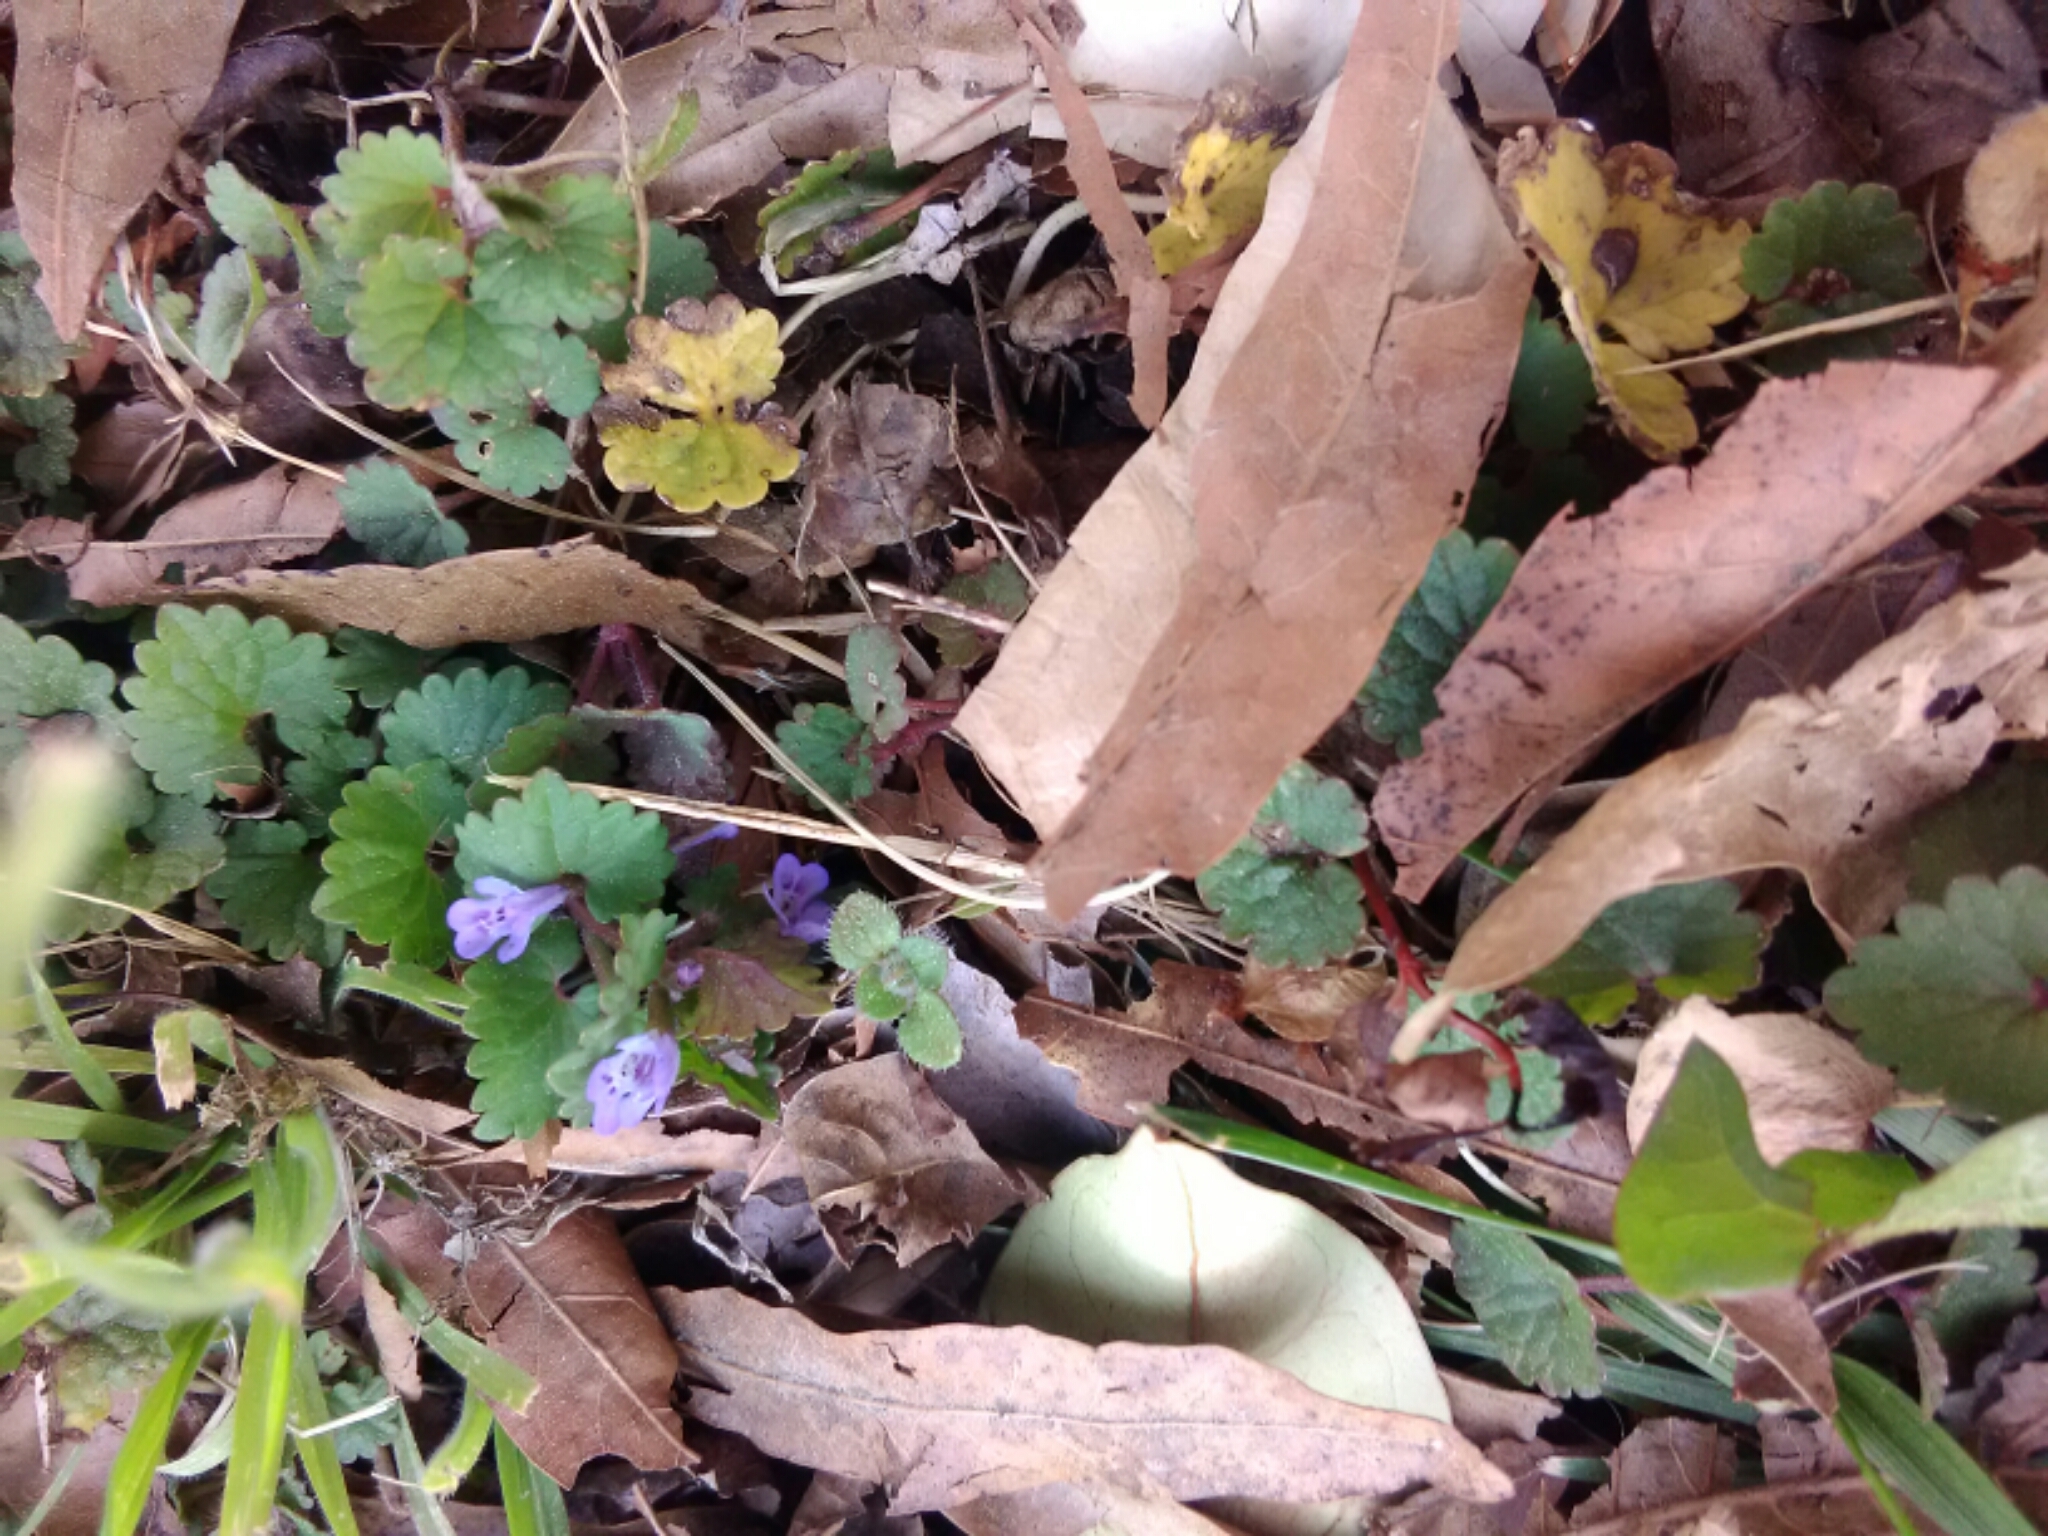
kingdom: Plantae
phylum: Tracheophyta
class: Magnoliopsida
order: Lamiales
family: Lamiaceae
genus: Glechoma
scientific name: Glechoma hederacea
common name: Ground ivy
